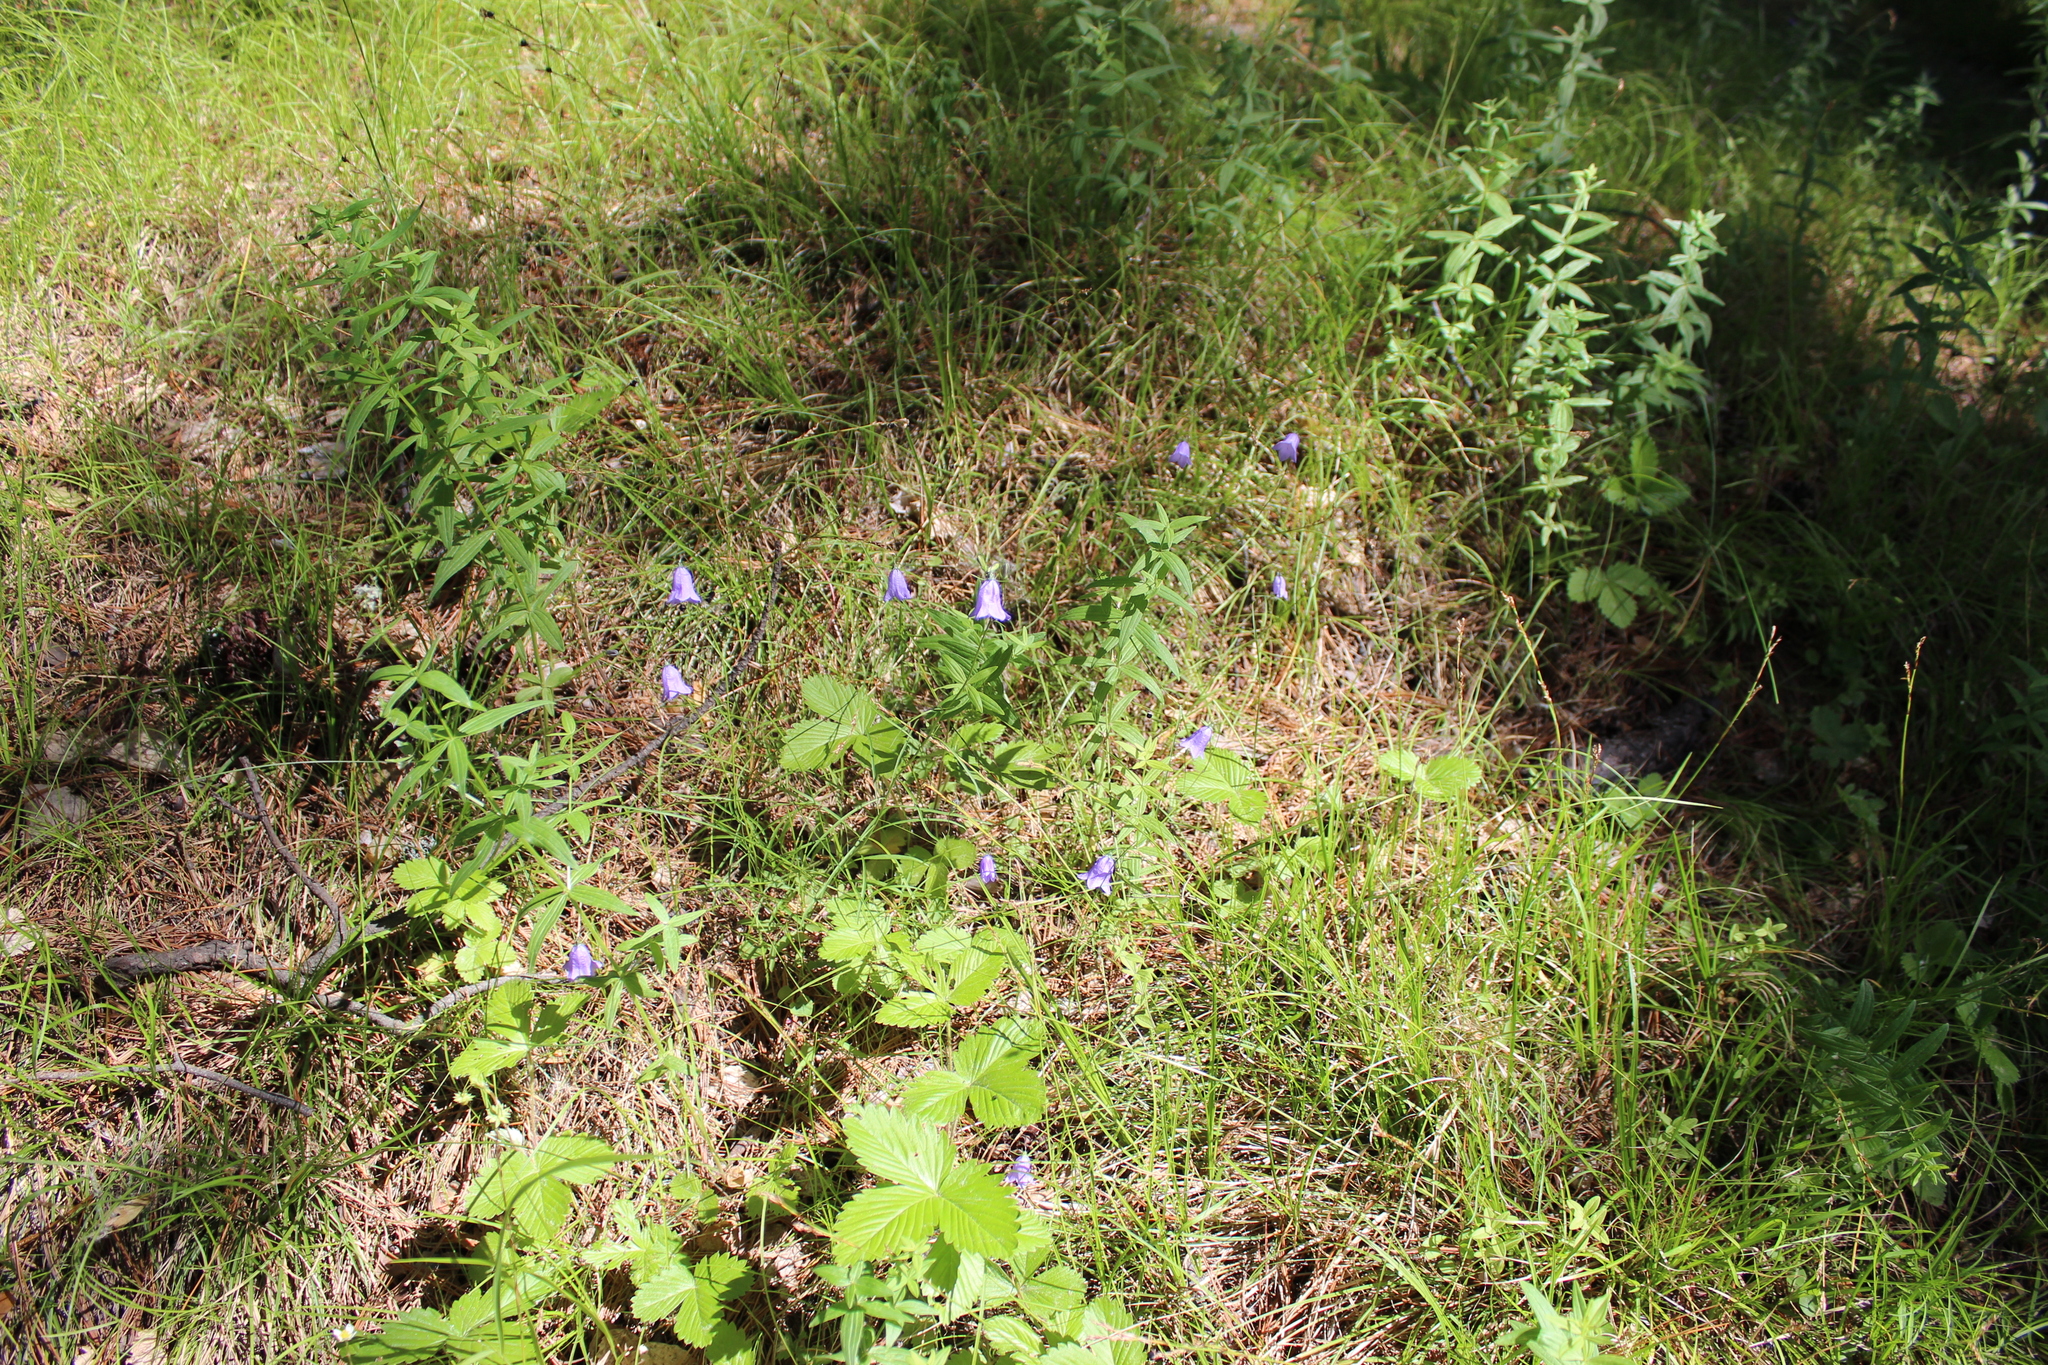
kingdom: Plantae
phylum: Tracheophyta
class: Magnoliopsida
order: Asterales
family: Campanulaceae
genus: Campanula
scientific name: Campanula rotundifolia
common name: Harebell
